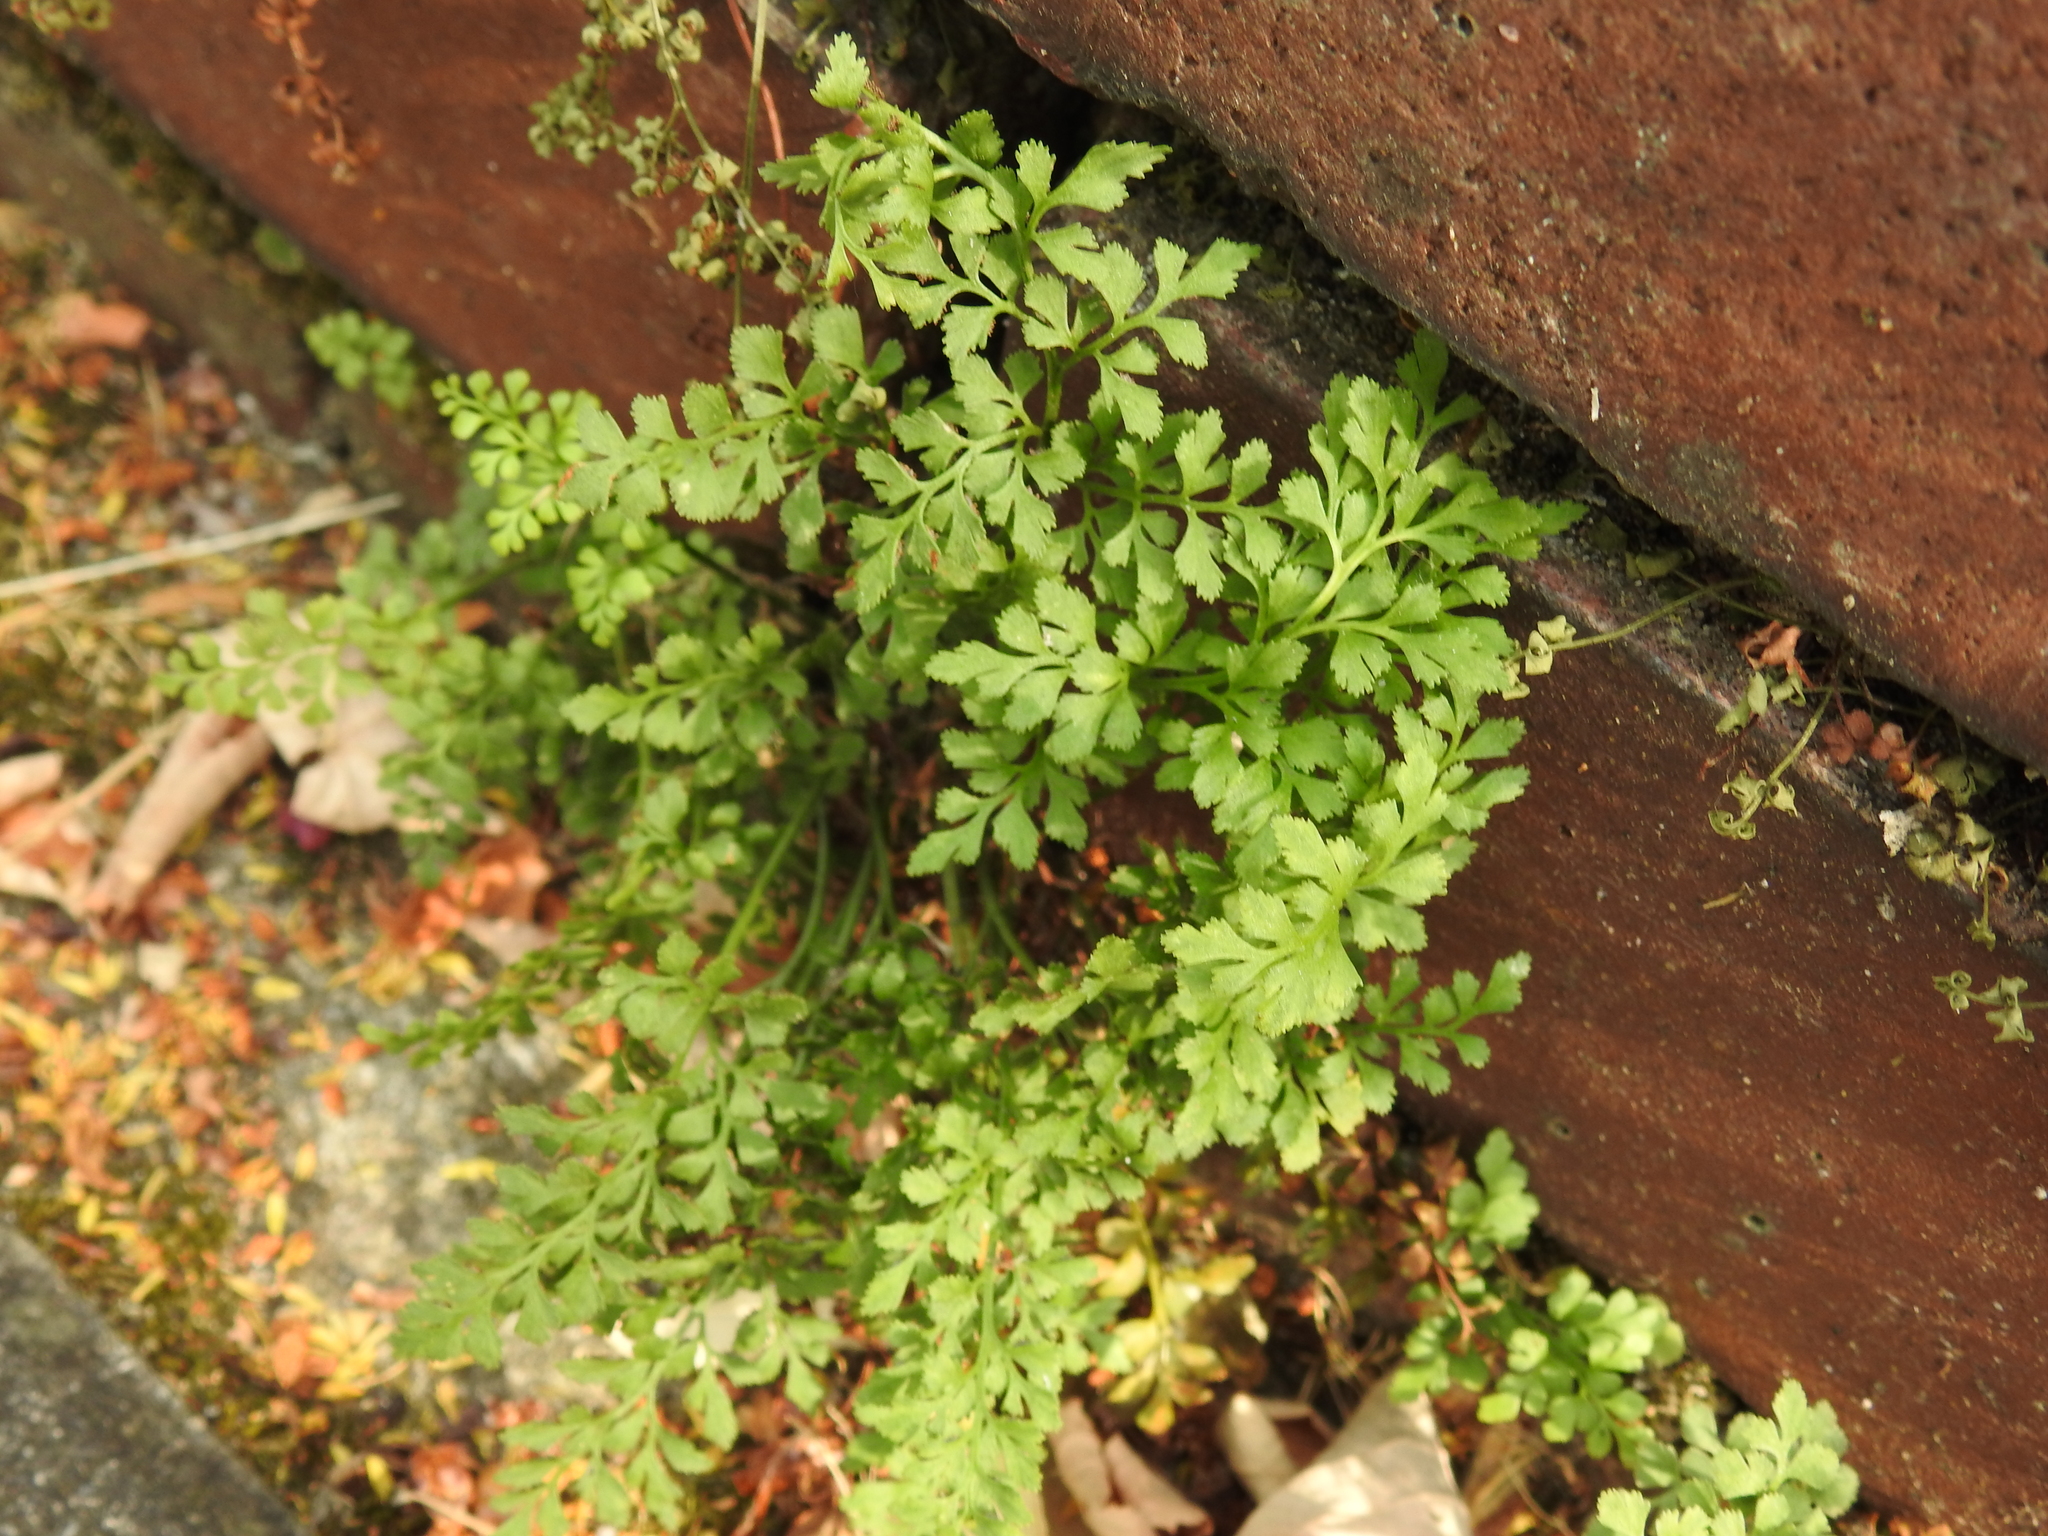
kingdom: Plantae
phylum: Tracheophyta
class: Polypodiopsida
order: Polypodiales
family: Aspleniaceae
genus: Asplenium
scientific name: Asplenium ruta-muraria
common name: Wall-rue
